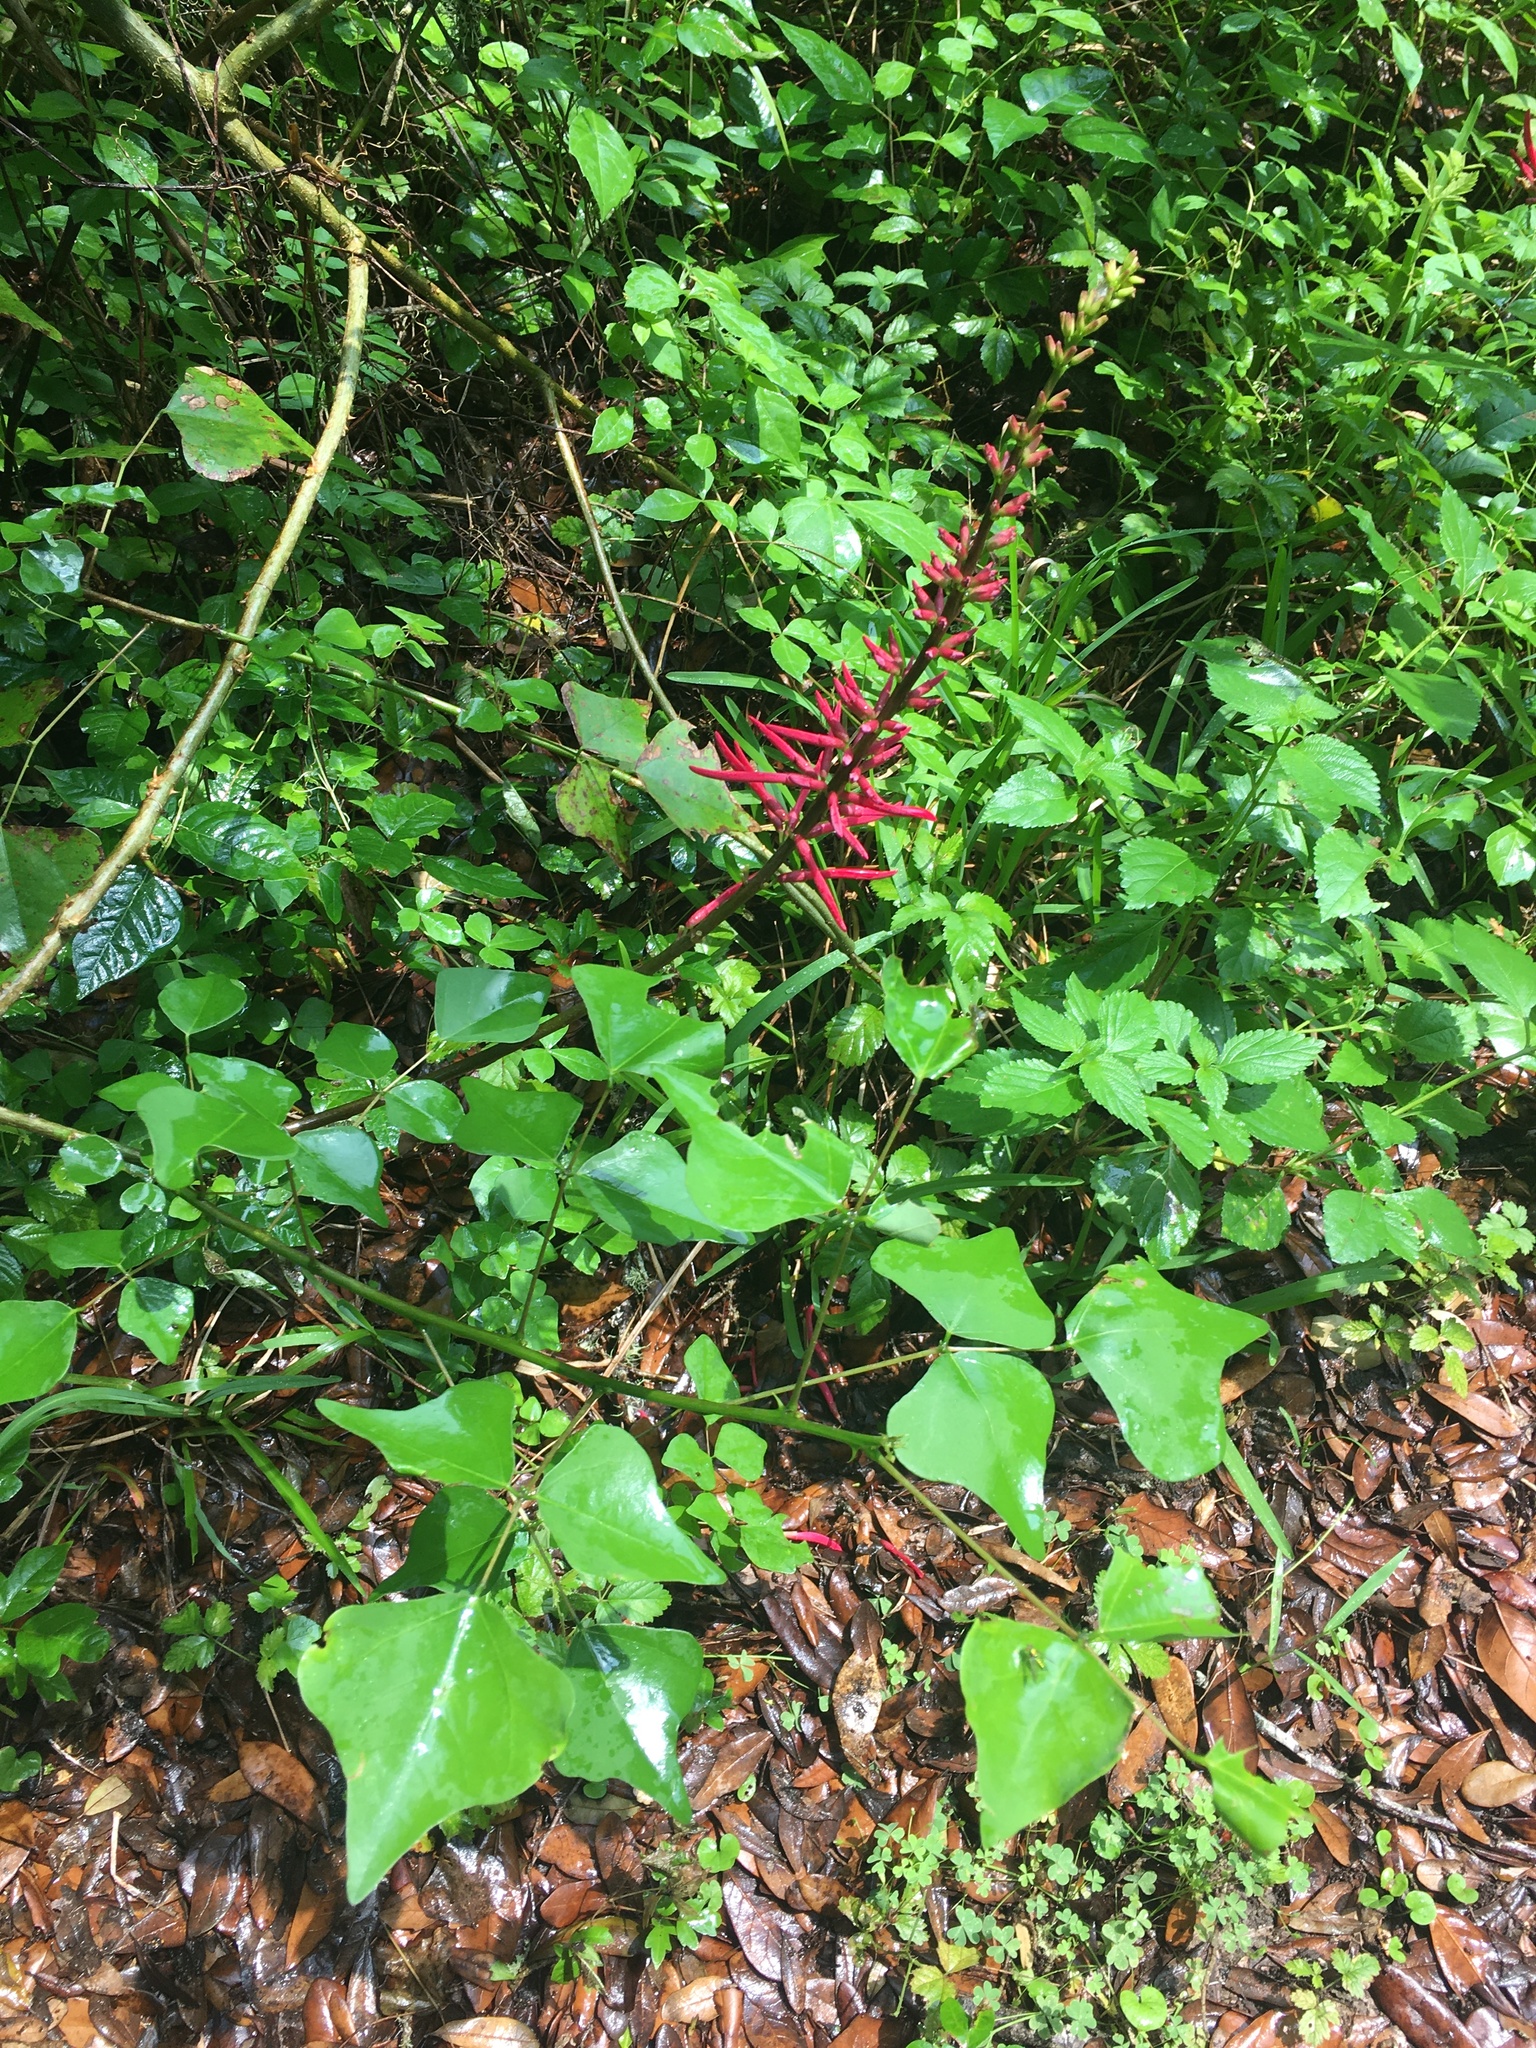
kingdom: Plantae
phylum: Tracheophyta
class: Magnoliopsida
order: Fabales
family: Fabaceae
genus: Erythrina
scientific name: Erythrina herbacea
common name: Coral-bean
